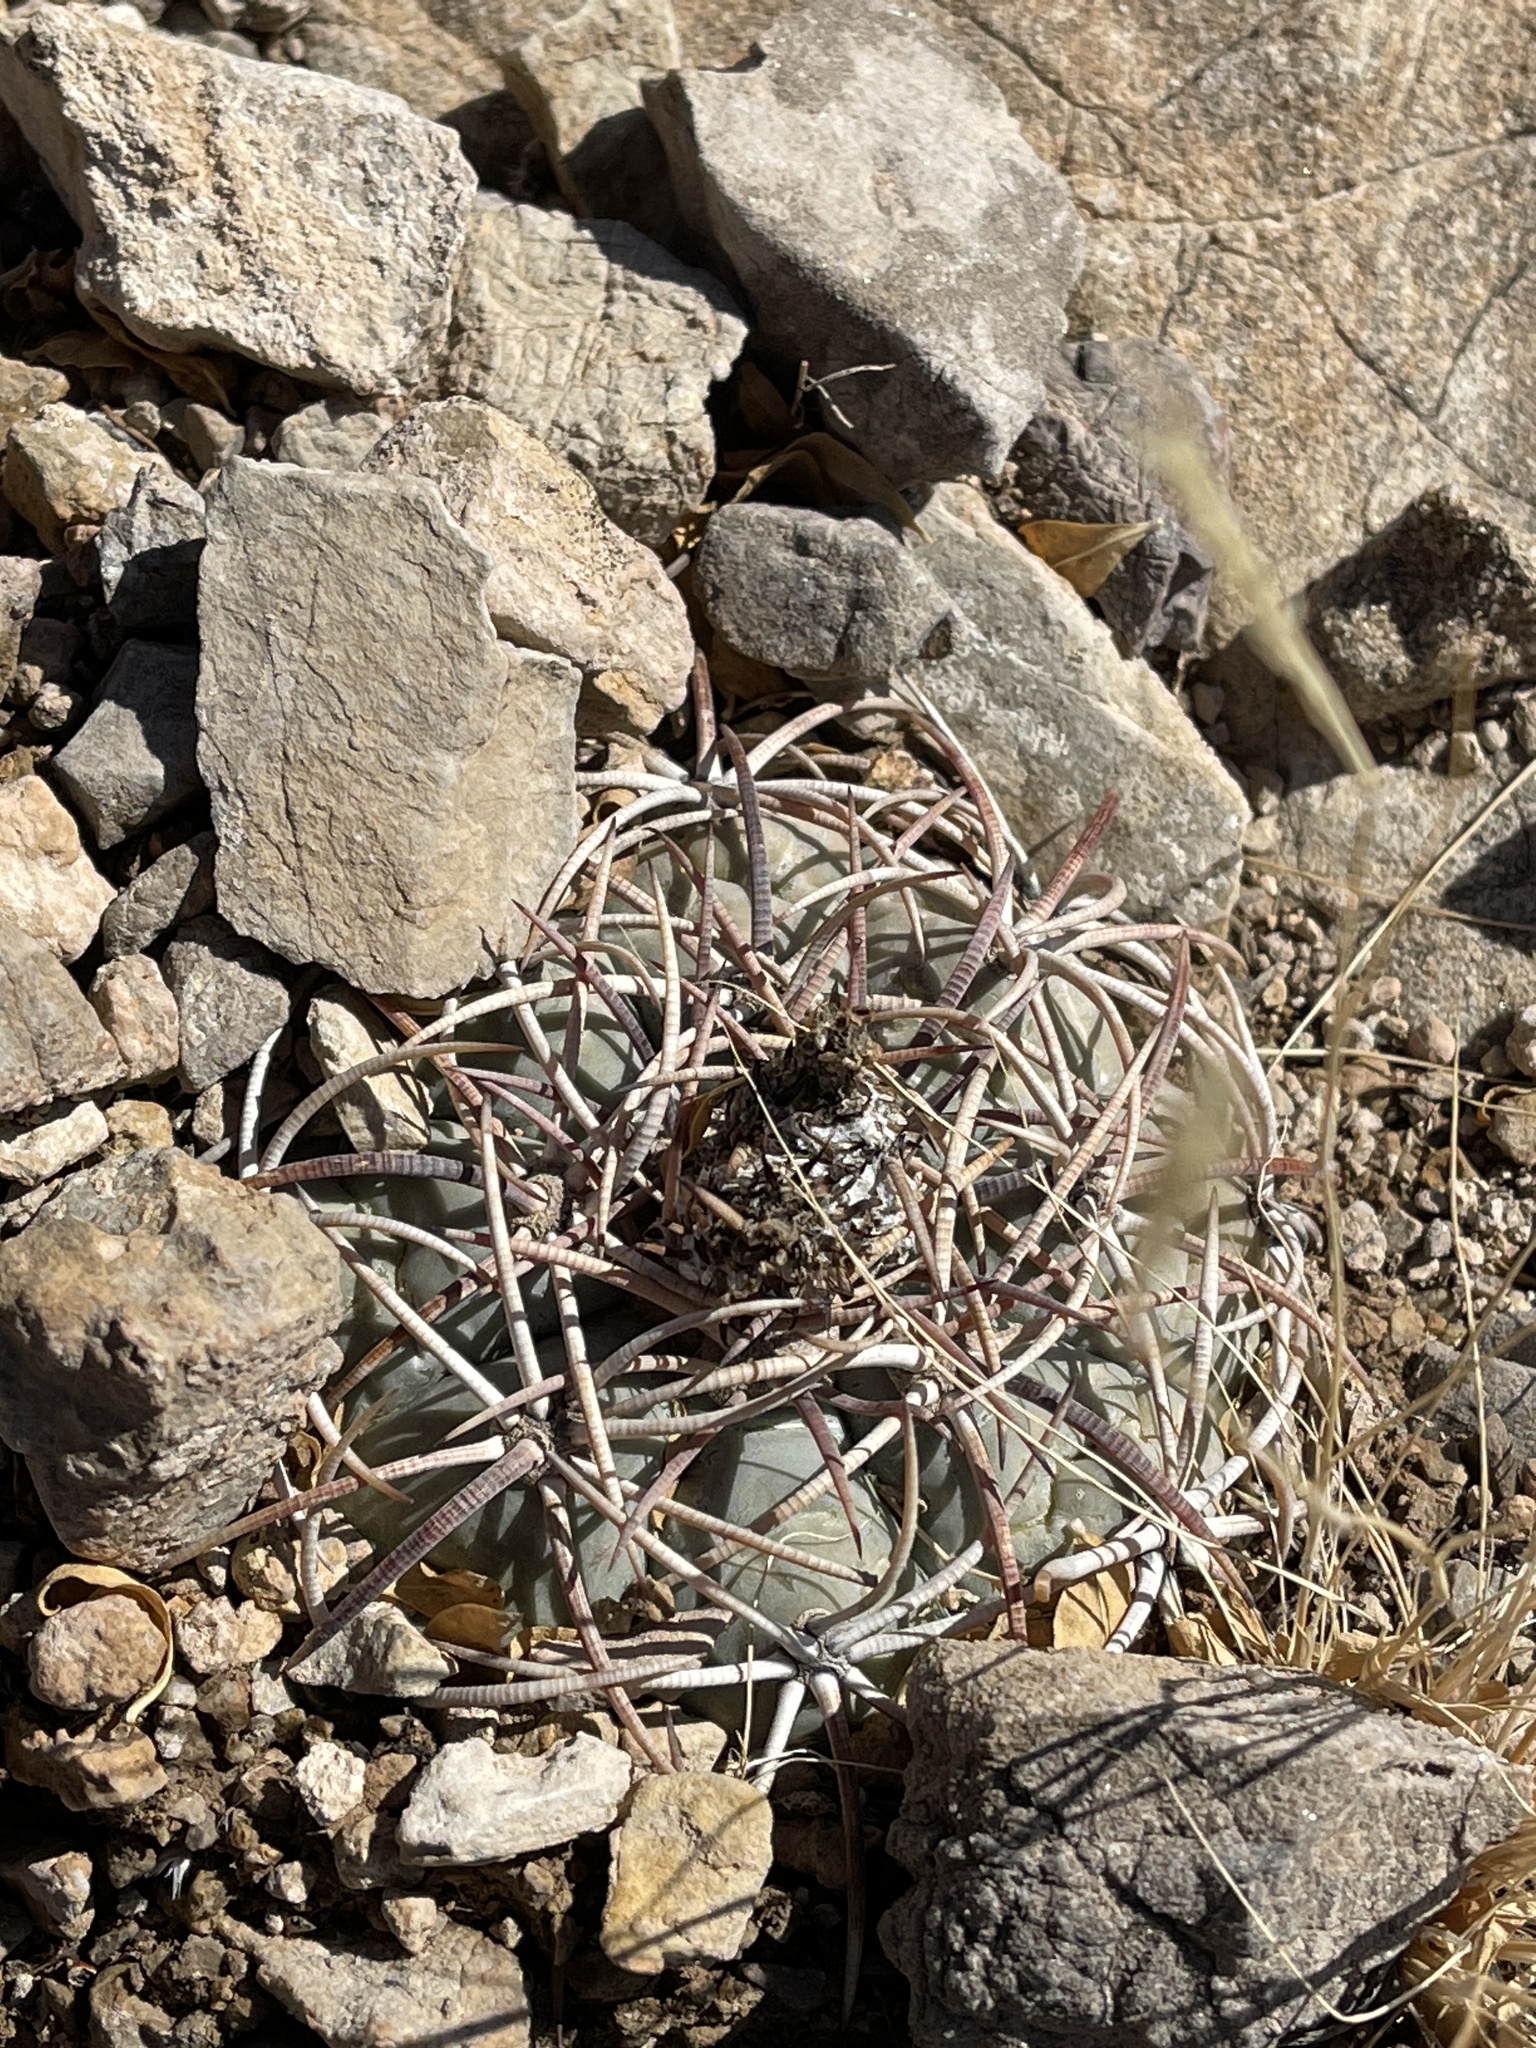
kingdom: Plantae
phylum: Tracheophyta
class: Magnoliopsida
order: Caryophyllales
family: Cactaceae
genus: Echinocactus
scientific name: Echinocactus horizonthalonius
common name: Devilshead
